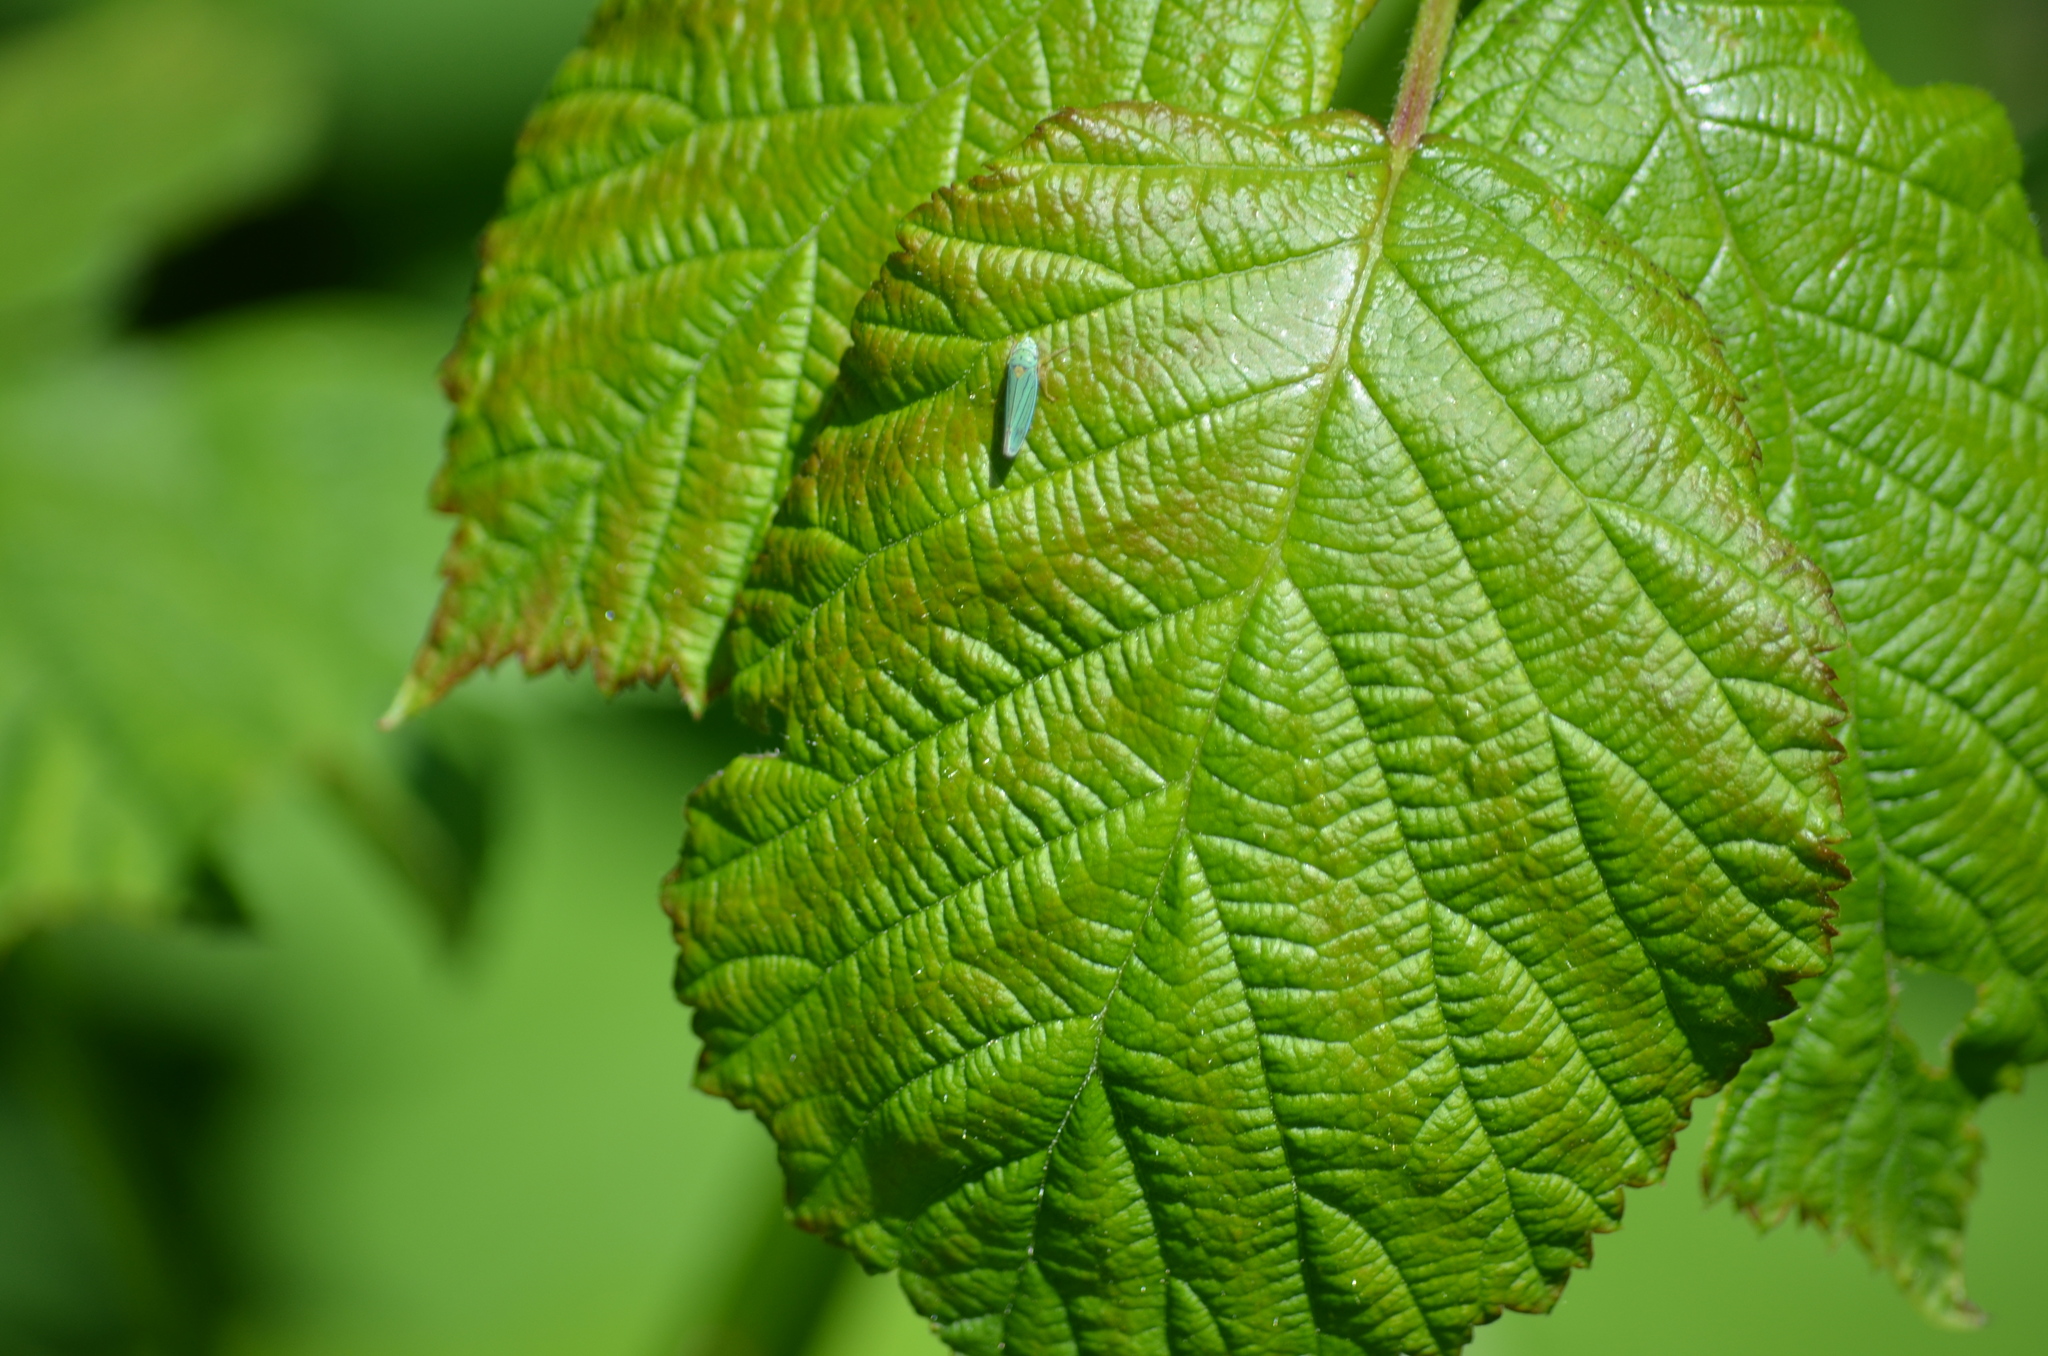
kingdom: Animalia
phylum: Arthropoda
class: Insecta
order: Hemiptera
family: Cicadellidae
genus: Graphocephala
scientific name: Graphocephala atropunctata
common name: Blue-green sharpshooter
